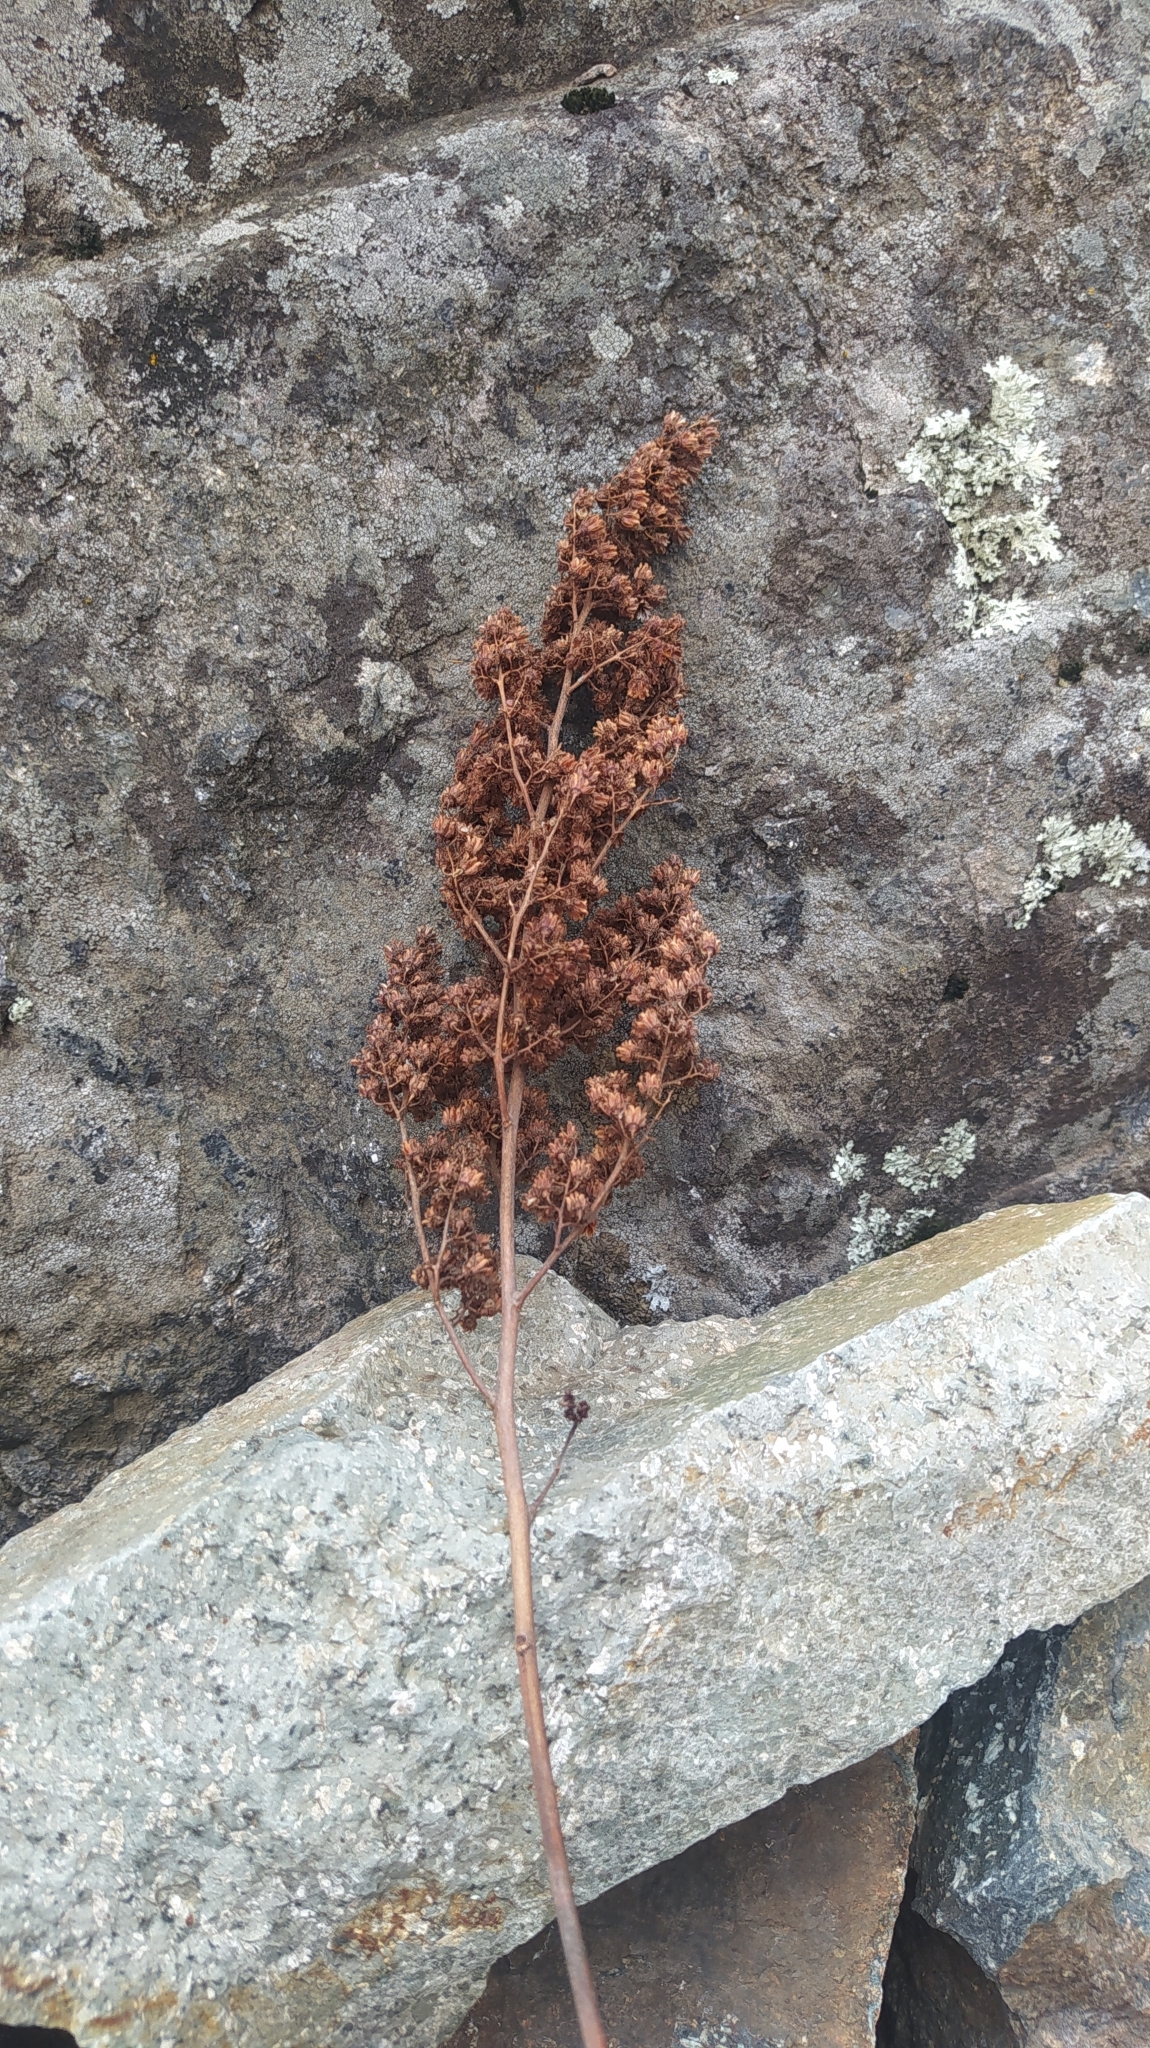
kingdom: Plantae
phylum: Tracheophyta
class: Magnoliopsida
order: Rosales
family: Rosaceae
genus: Sorbaria
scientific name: Sorbaria sorbifolia
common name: False spiraea
